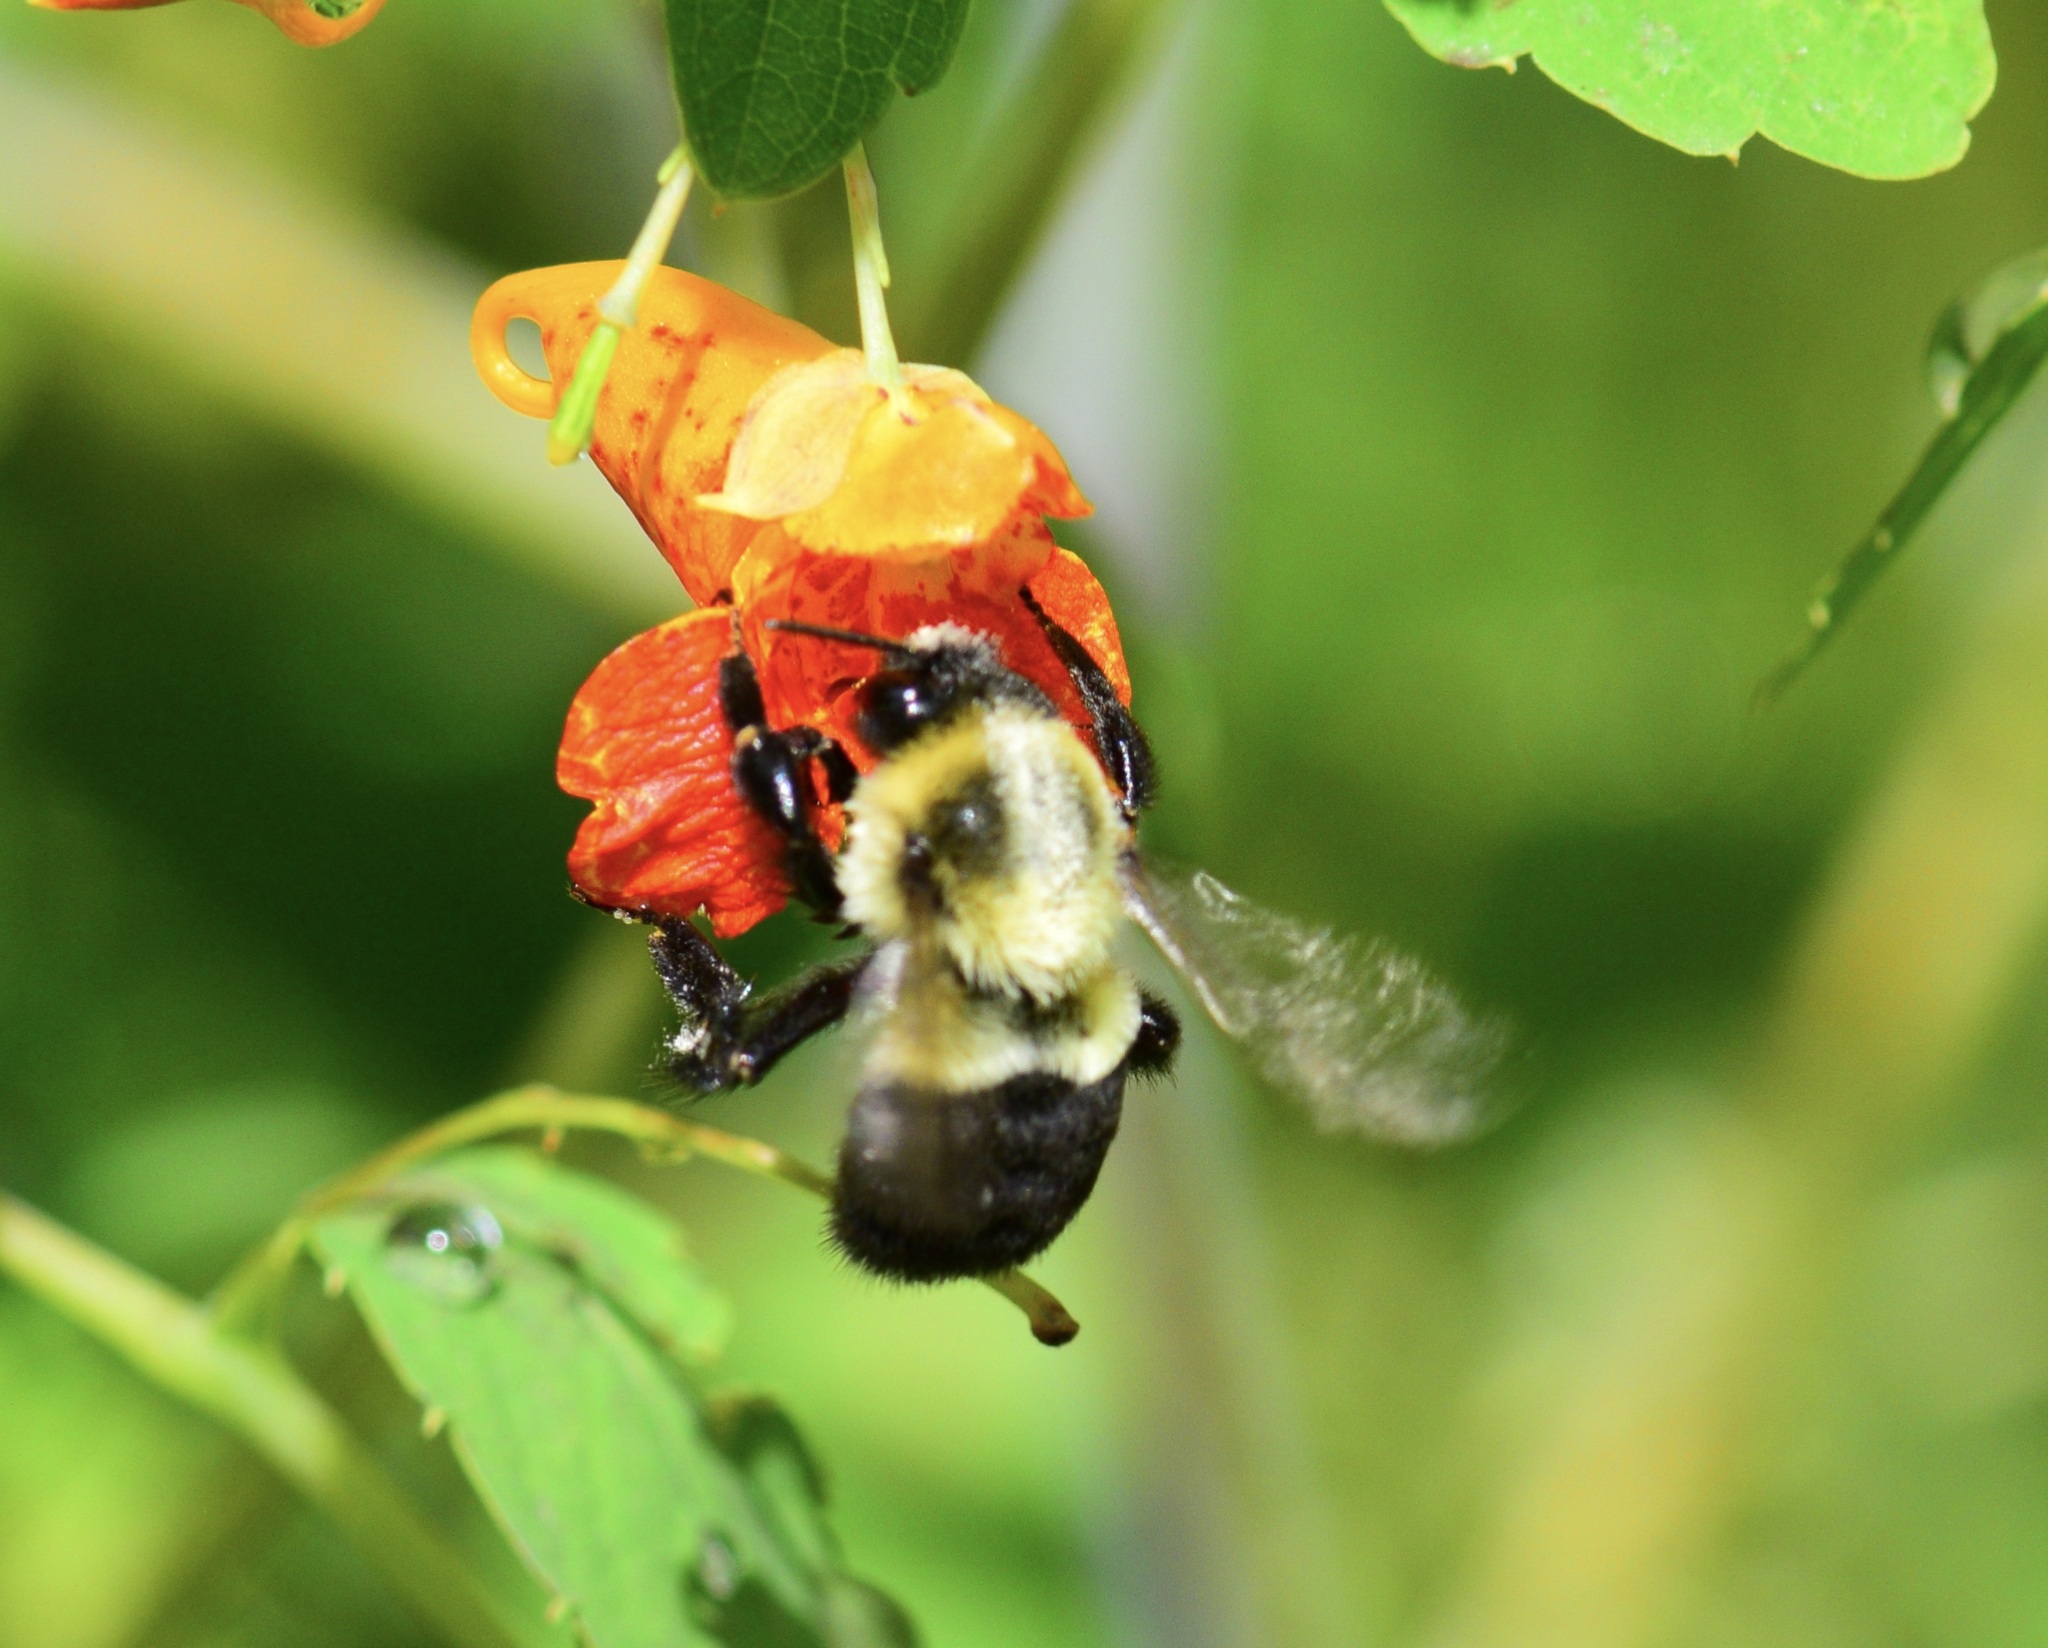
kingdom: Animalia
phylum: Arthropoda
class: Insecta
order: Hymenoptera
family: Apidae
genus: Bombus
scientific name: Bombus impatiens
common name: Common eastern bumble bee
